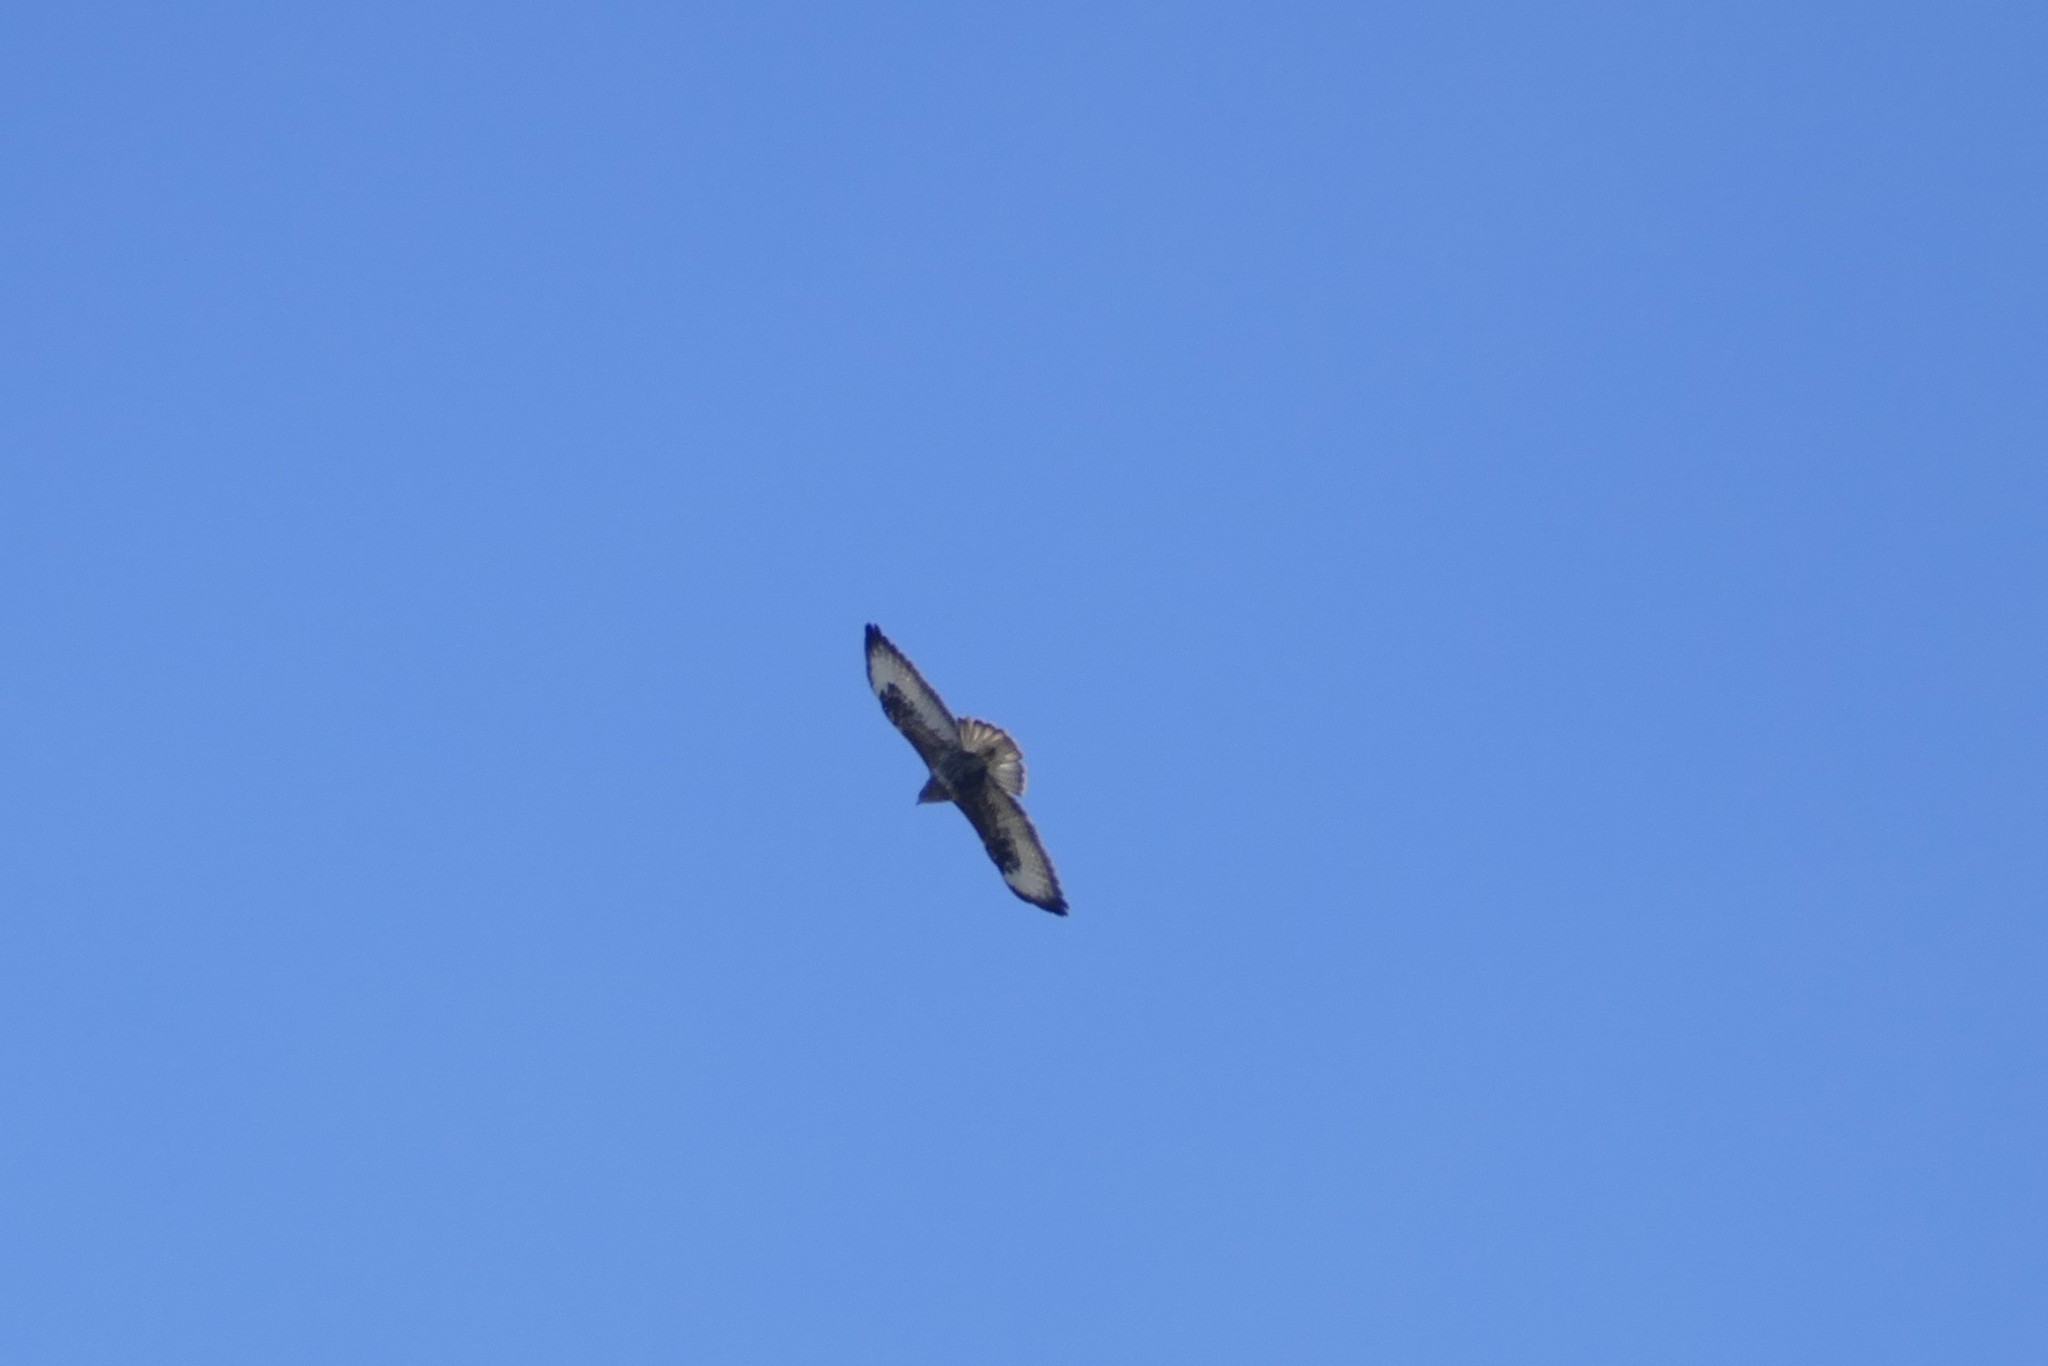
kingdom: Animalia
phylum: Chordata
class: Aves
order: Accipitriformes
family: Accipitridae
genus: Buteo
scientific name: Buteo buteo
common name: Common buzzard
